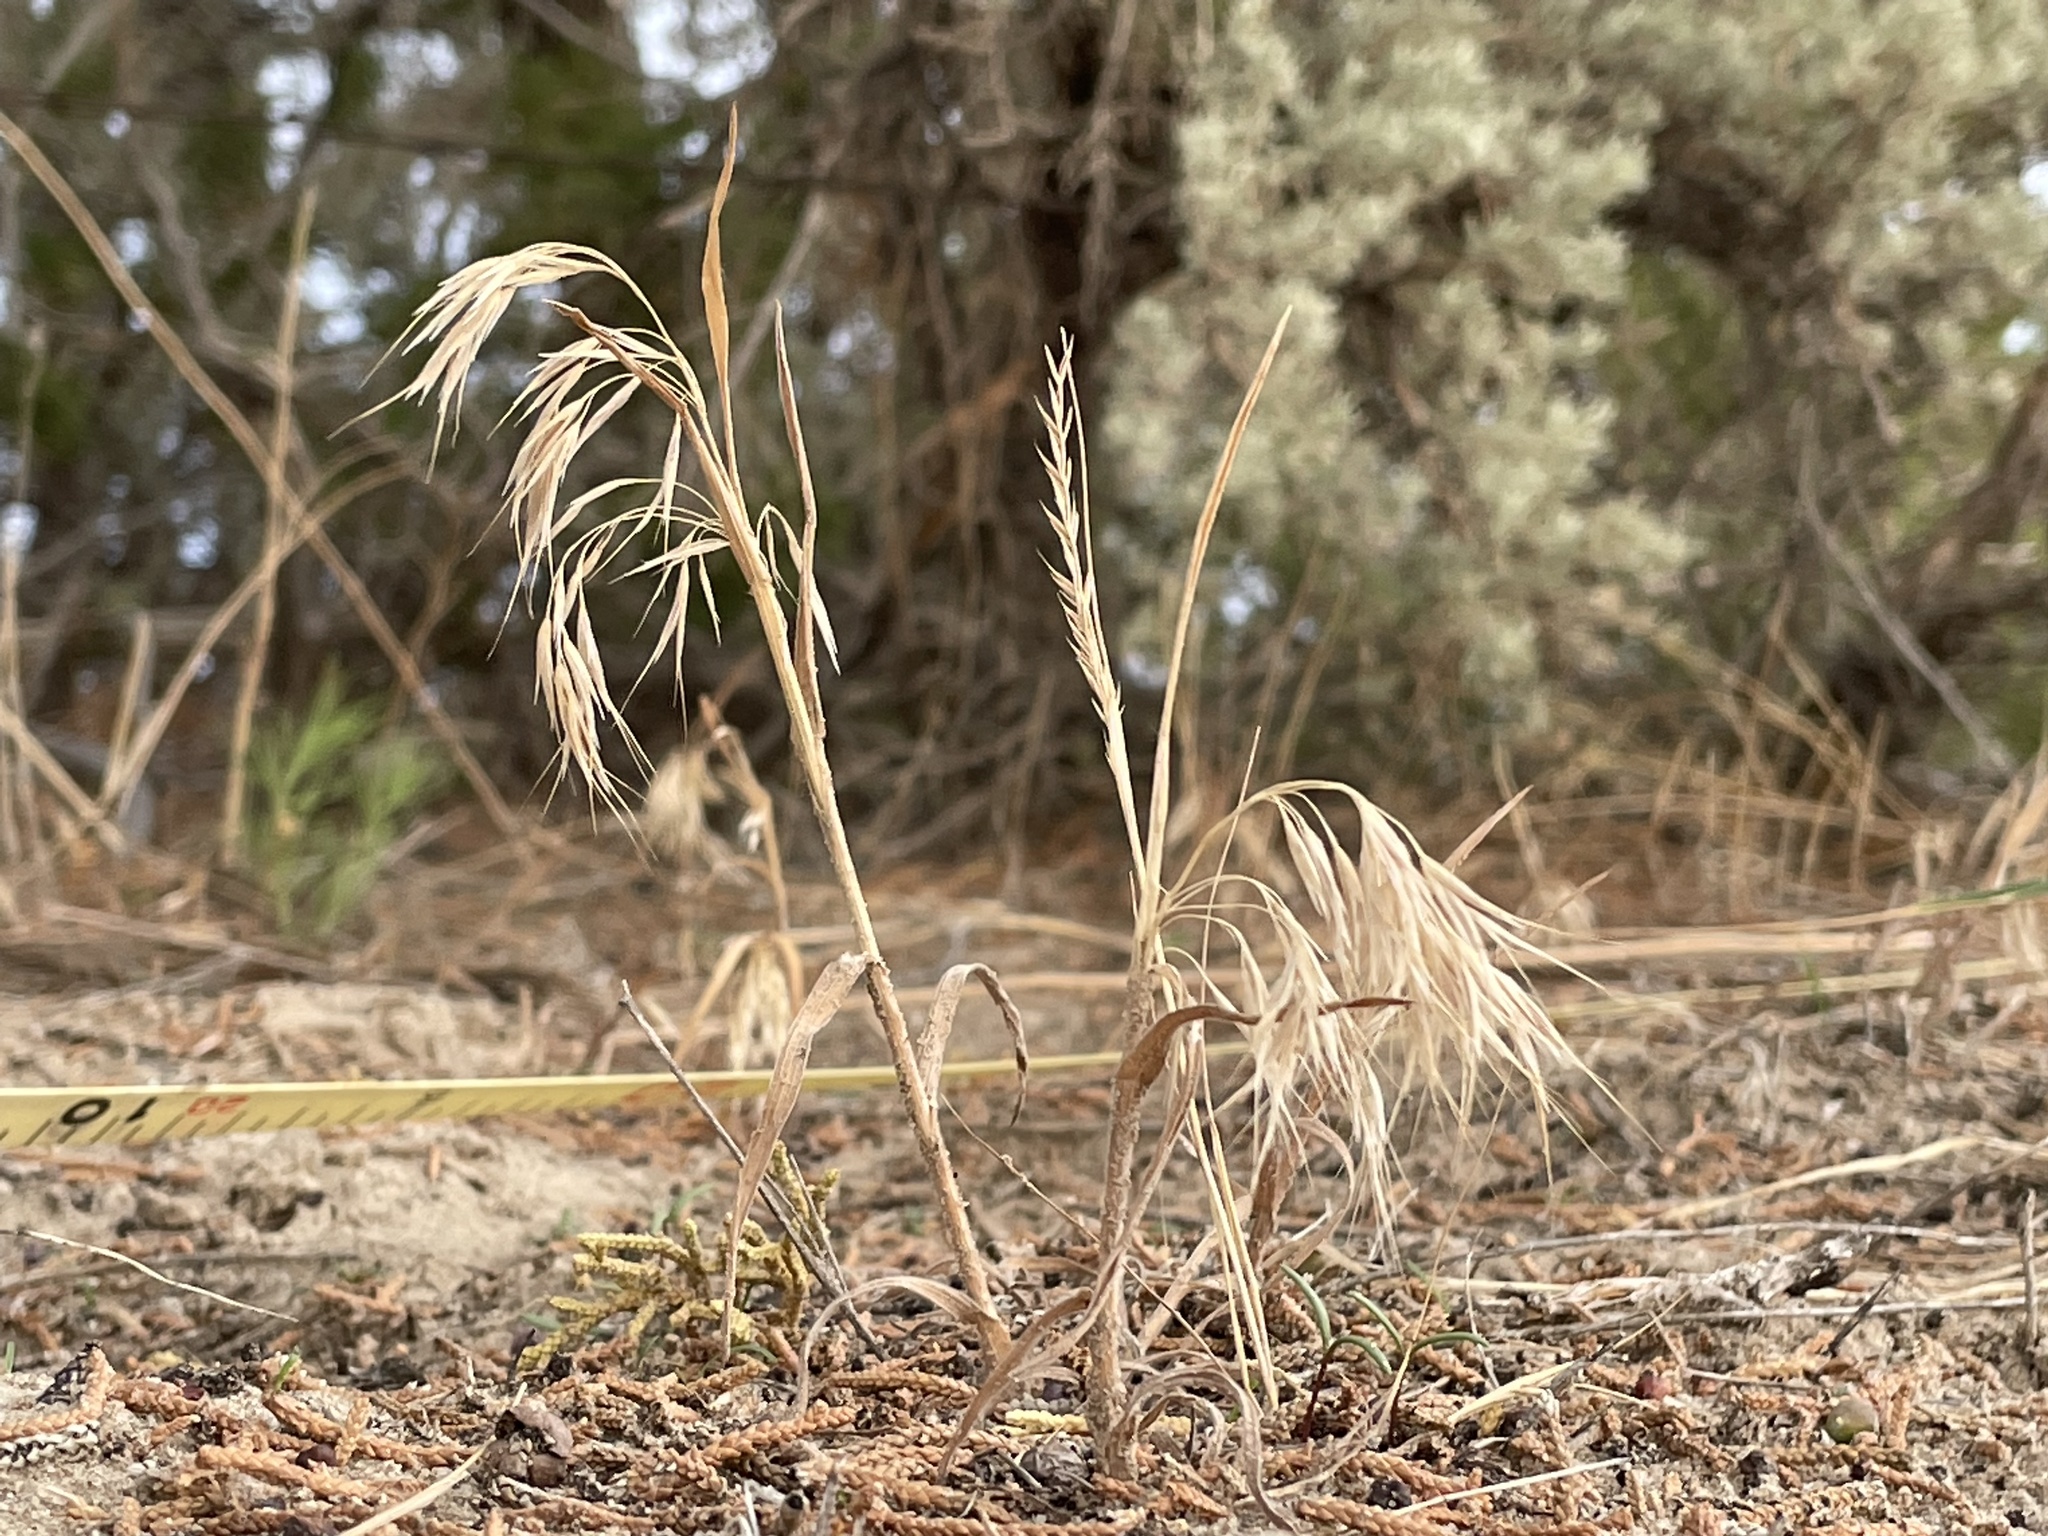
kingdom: Plantae
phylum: Tracheophyta
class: Liliopsida
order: Poales
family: Poaceae
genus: Bromus
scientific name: Bromus tectorum
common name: Cheatgrass
